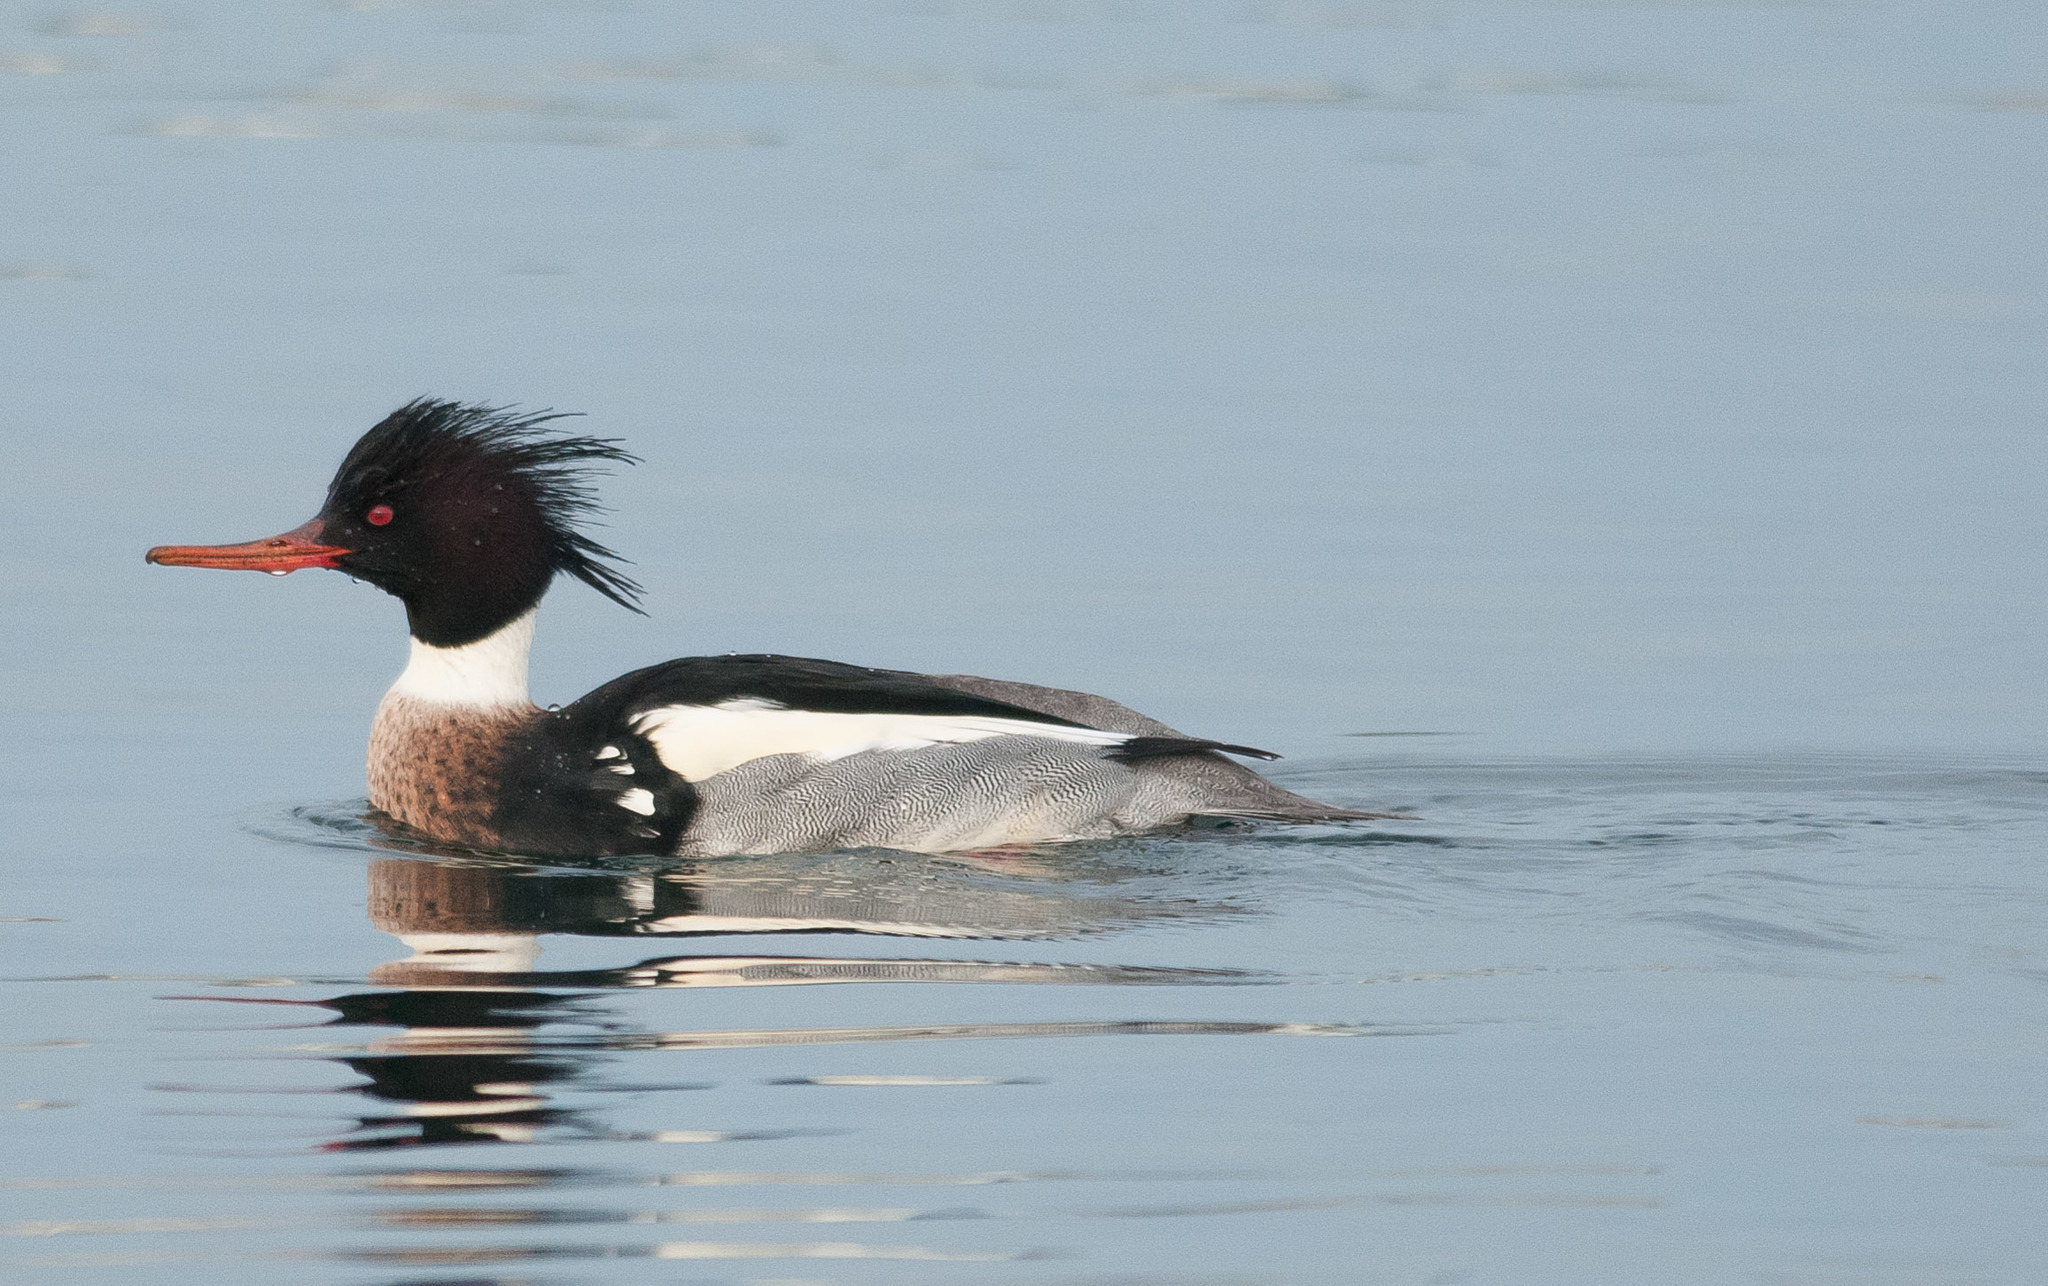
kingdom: Animalia
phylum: Chordata
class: Aves
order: Anseriformes
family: Anatidae
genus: Mergus
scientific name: Mergus serrator
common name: Red-breasted merganser
